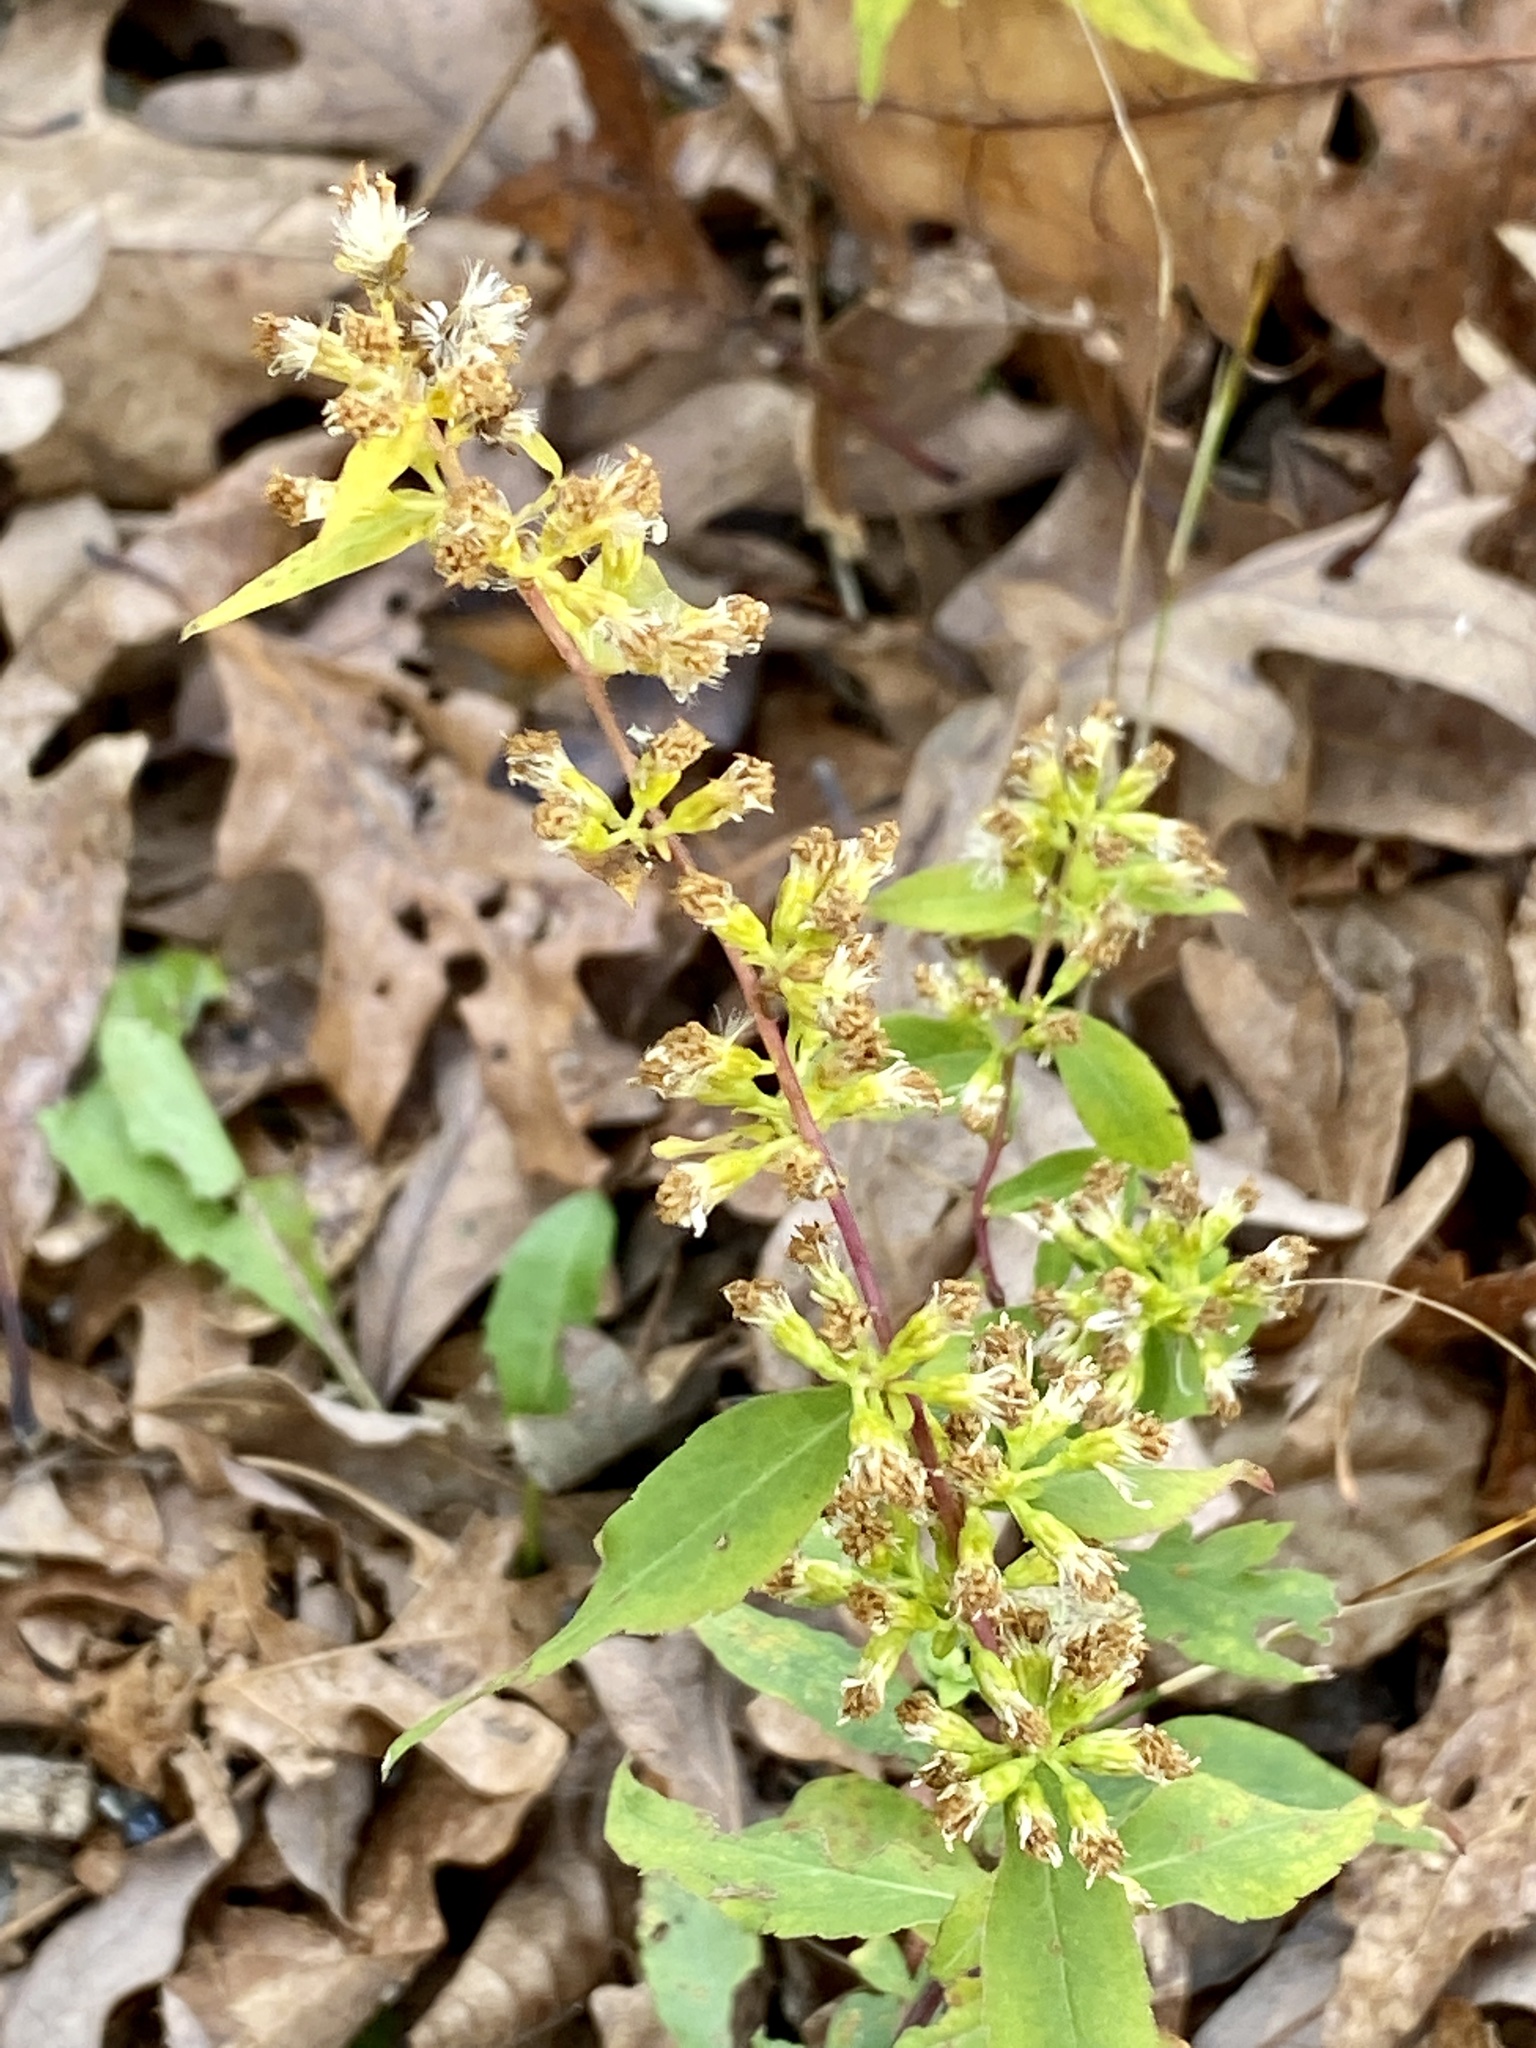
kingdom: Plantae
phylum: Tracheophyta
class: Magnoliopsida
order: Asterales
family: Asteraceae
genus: Solidago
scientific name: Solidago caesia
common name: Woodland goldenrod
